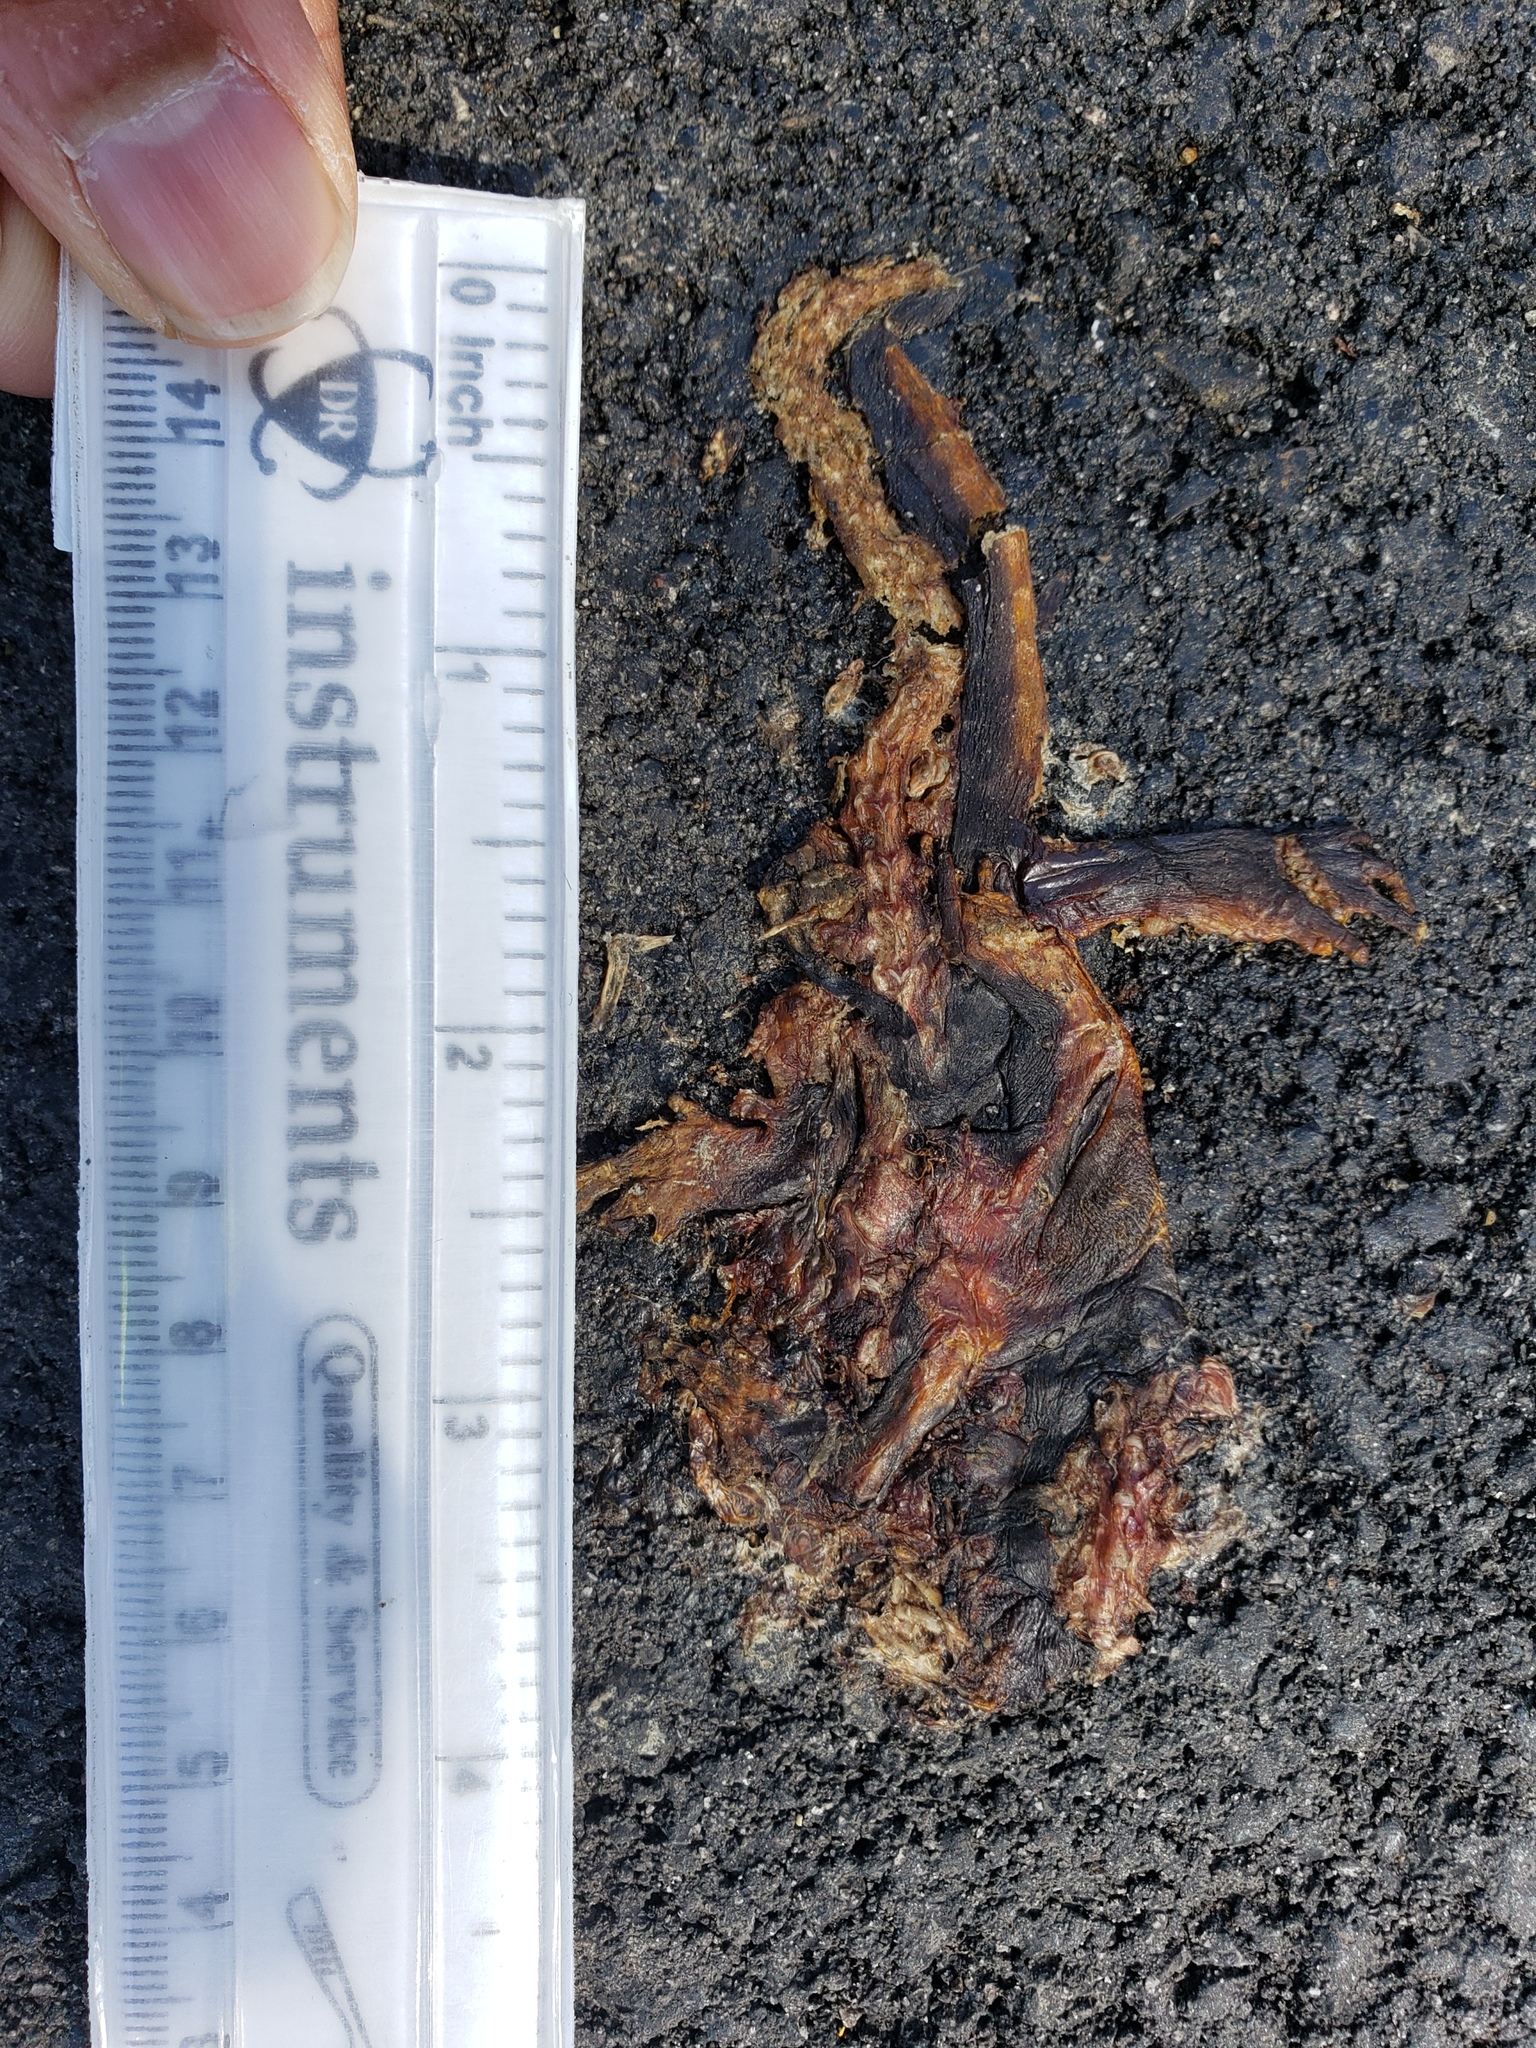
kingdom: Animalia
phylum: Chordata
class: Amphibia
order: Caudata
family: Salamandridae
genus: Taricha
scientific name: Taricha
